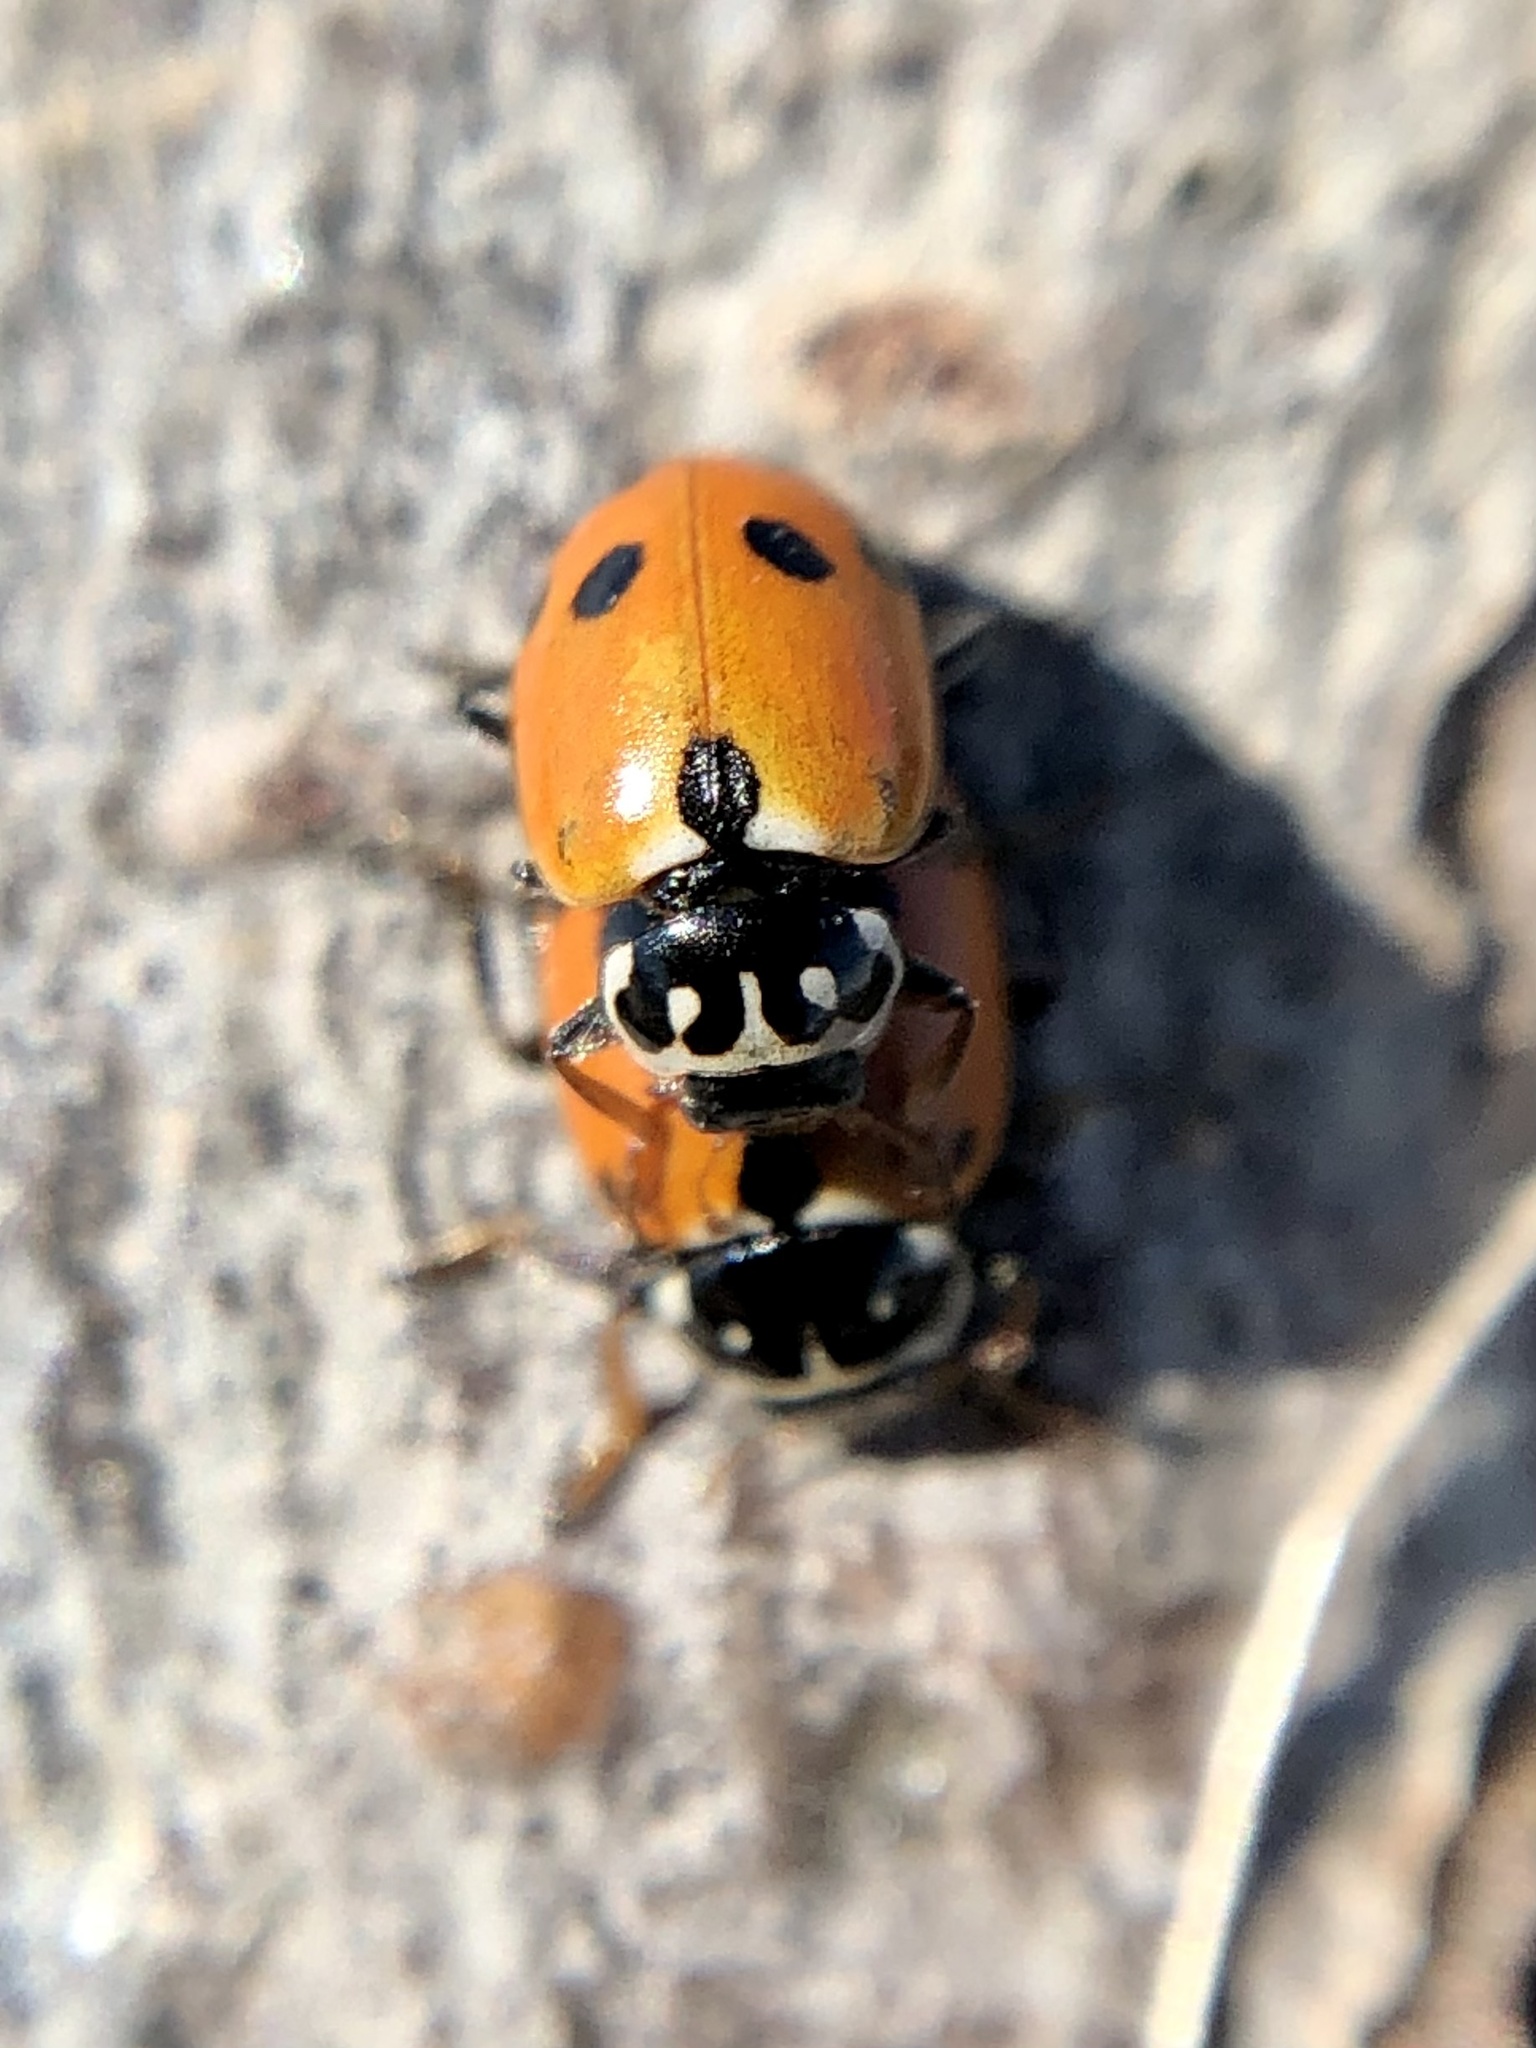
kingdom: Animalia
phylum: Arthropoda
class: Insecta
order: Coleoptera
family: Coccinellidae
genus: Hippodamia
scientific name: Hippodamia variegata
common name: Ladybird beetle
